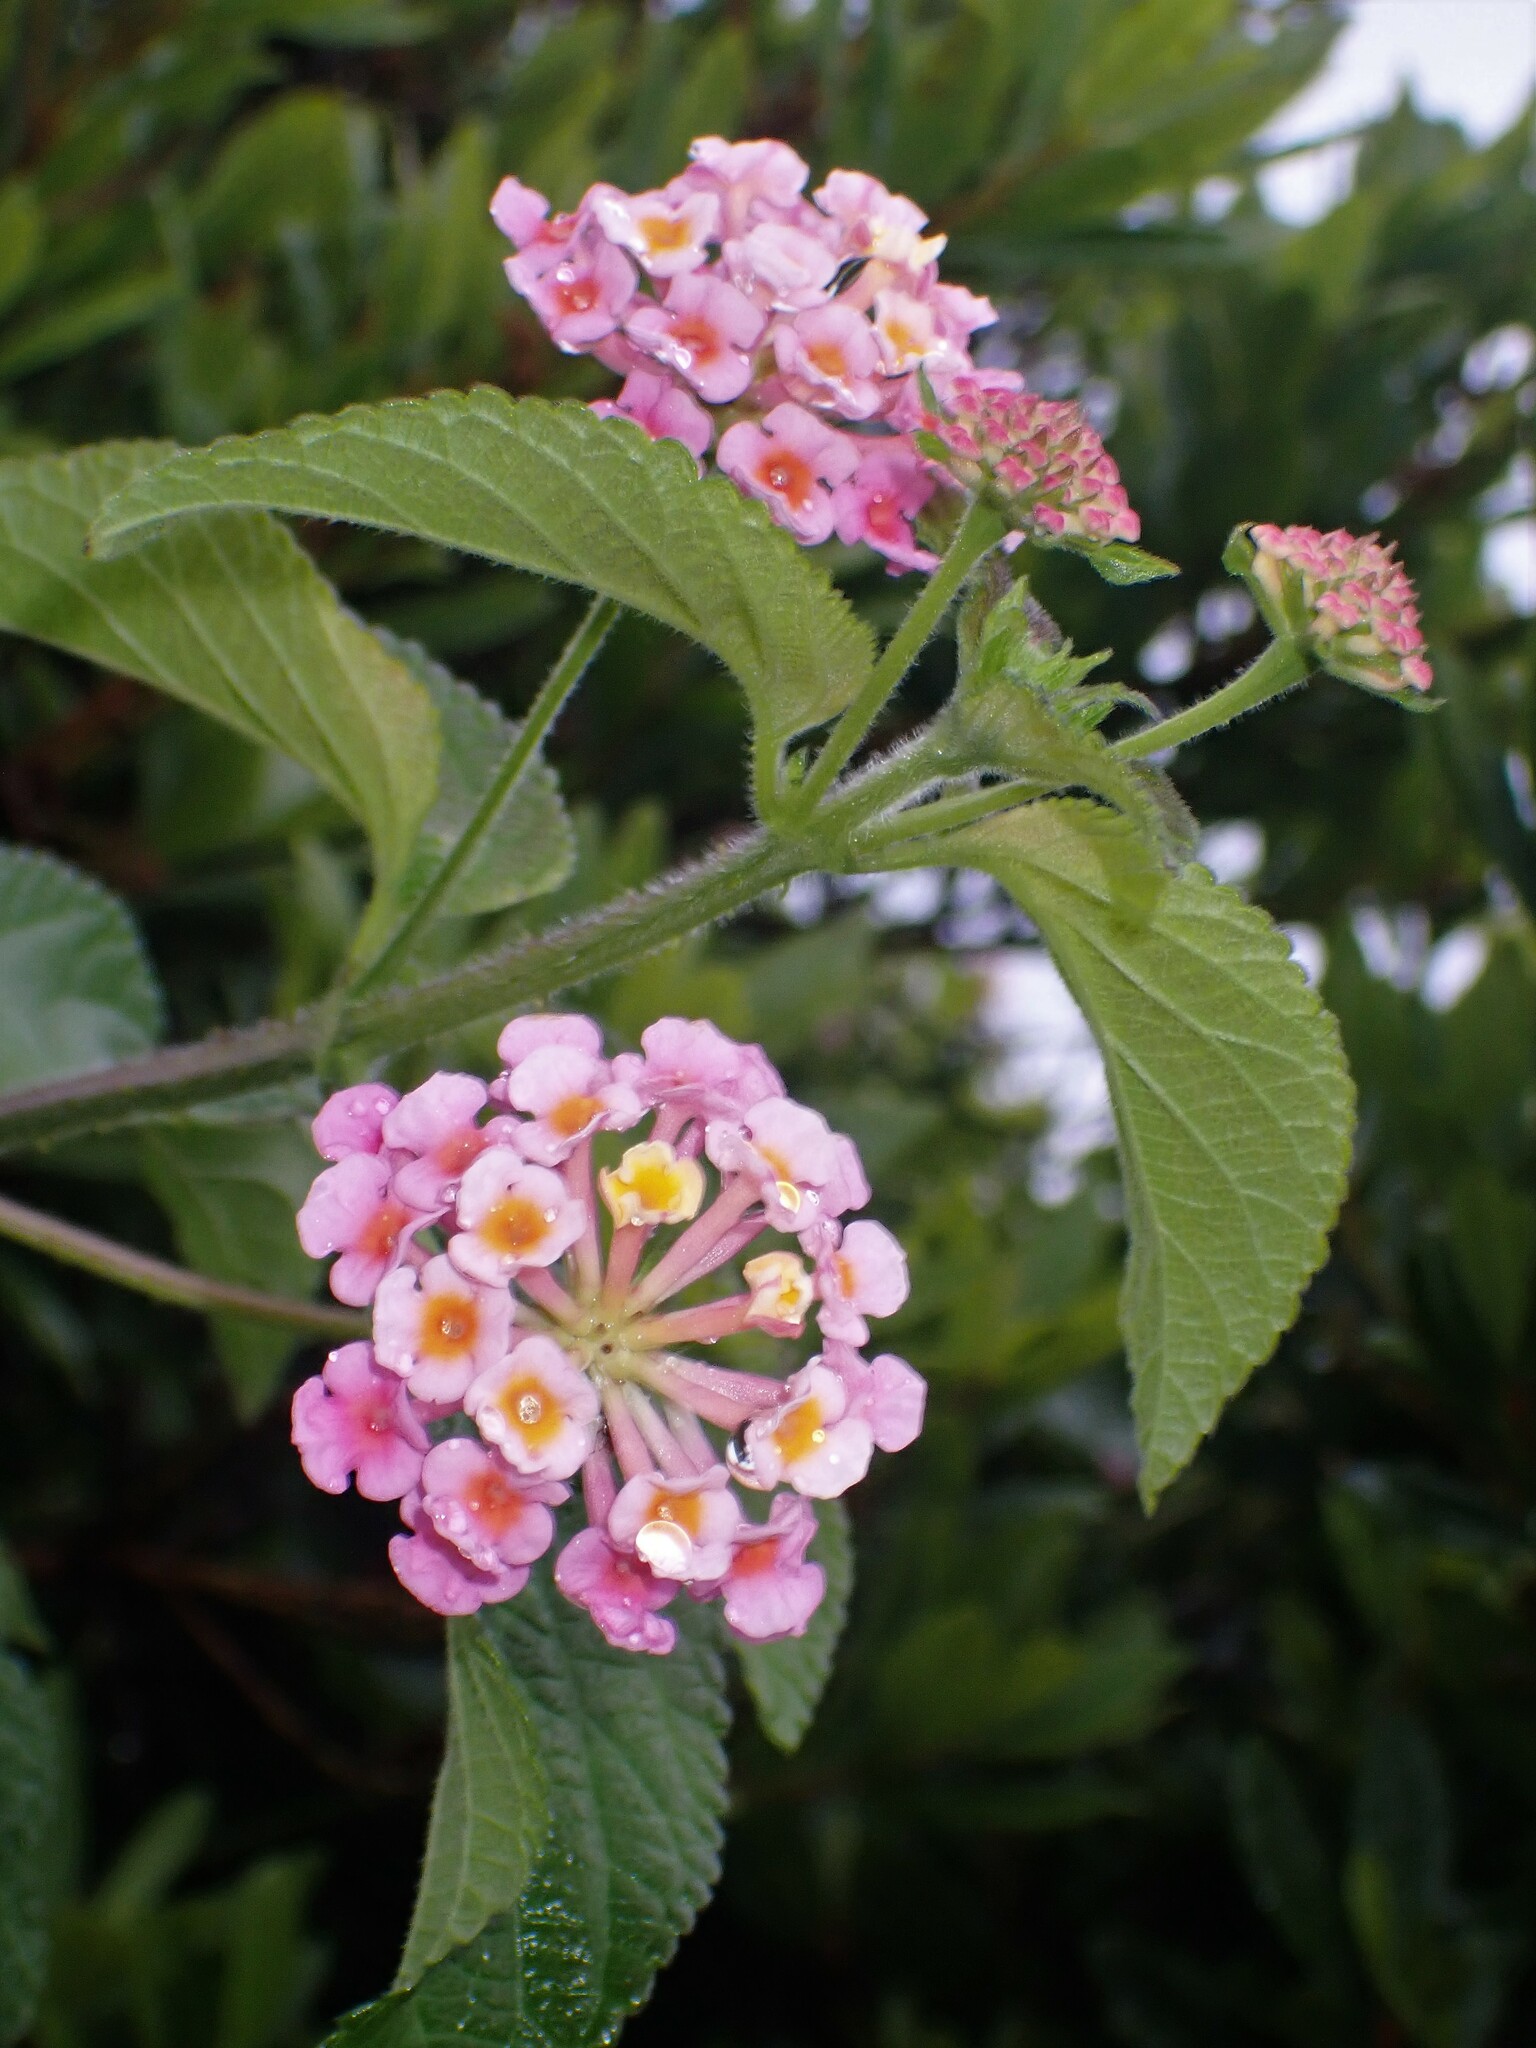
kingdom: Plantae
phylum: Tracheophyta
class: Magnoliopsida
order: Lamiales
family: Verbenaceae
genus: Lantana
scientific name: Lantana camara
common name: Lantana
